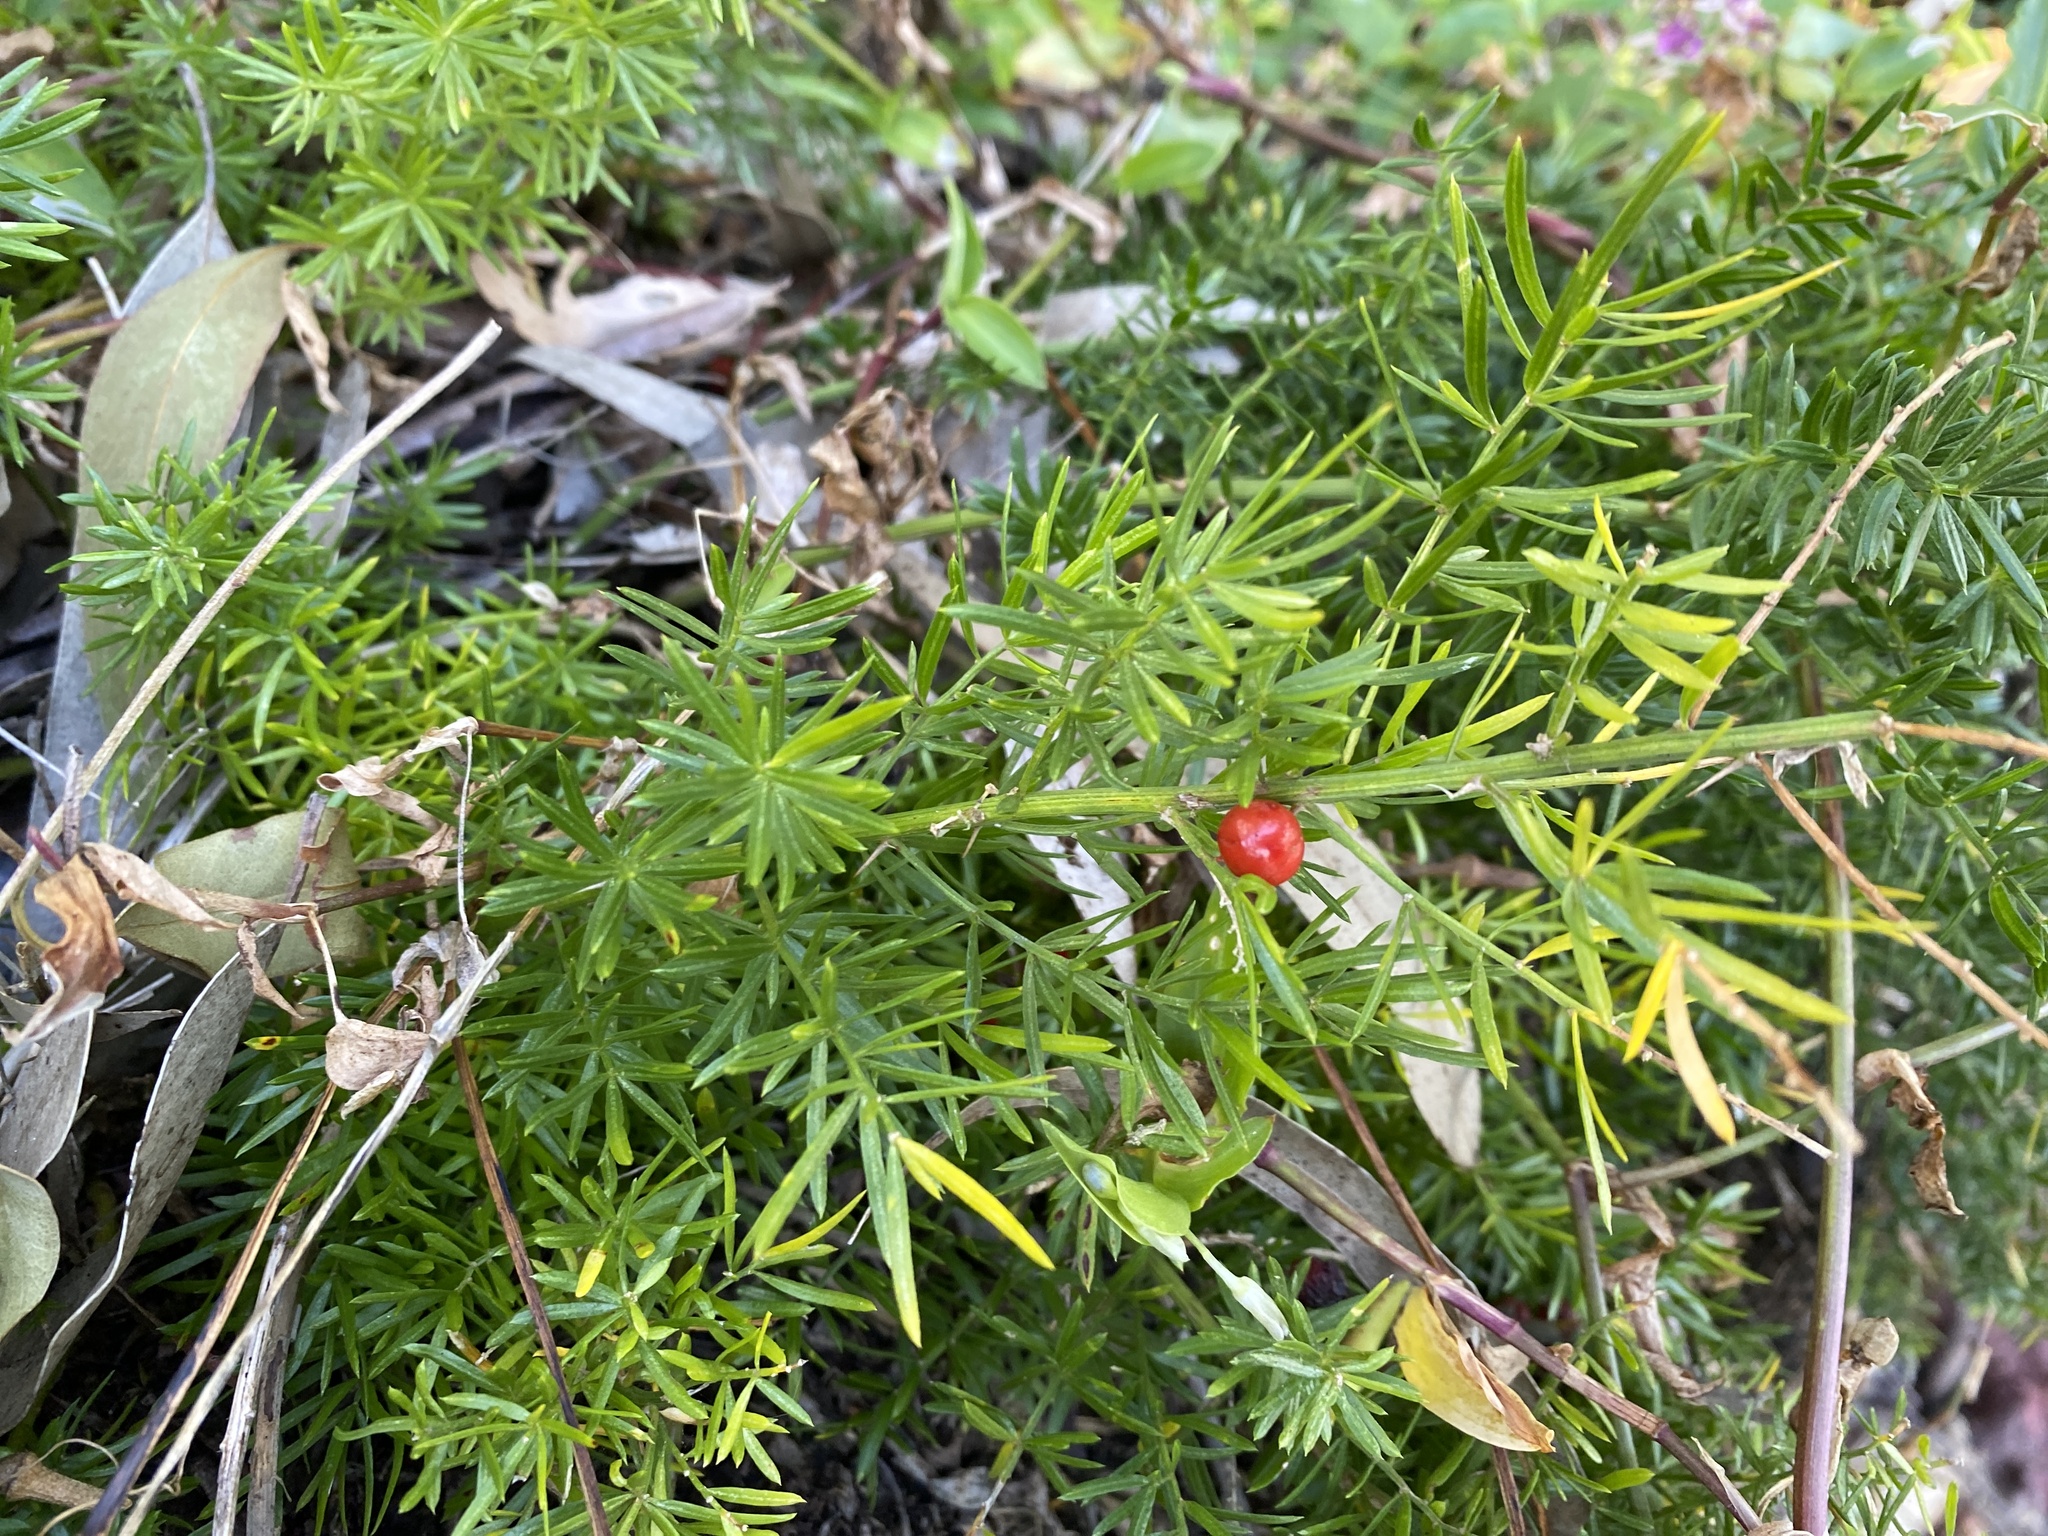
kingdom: Plantae
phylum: Tracheophyta
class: Liliopsida
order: Asparagales
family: Asparagaceae
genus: Asparagus
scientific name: Asparagus aethiopicus
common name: Sprenger's asparagus fern
